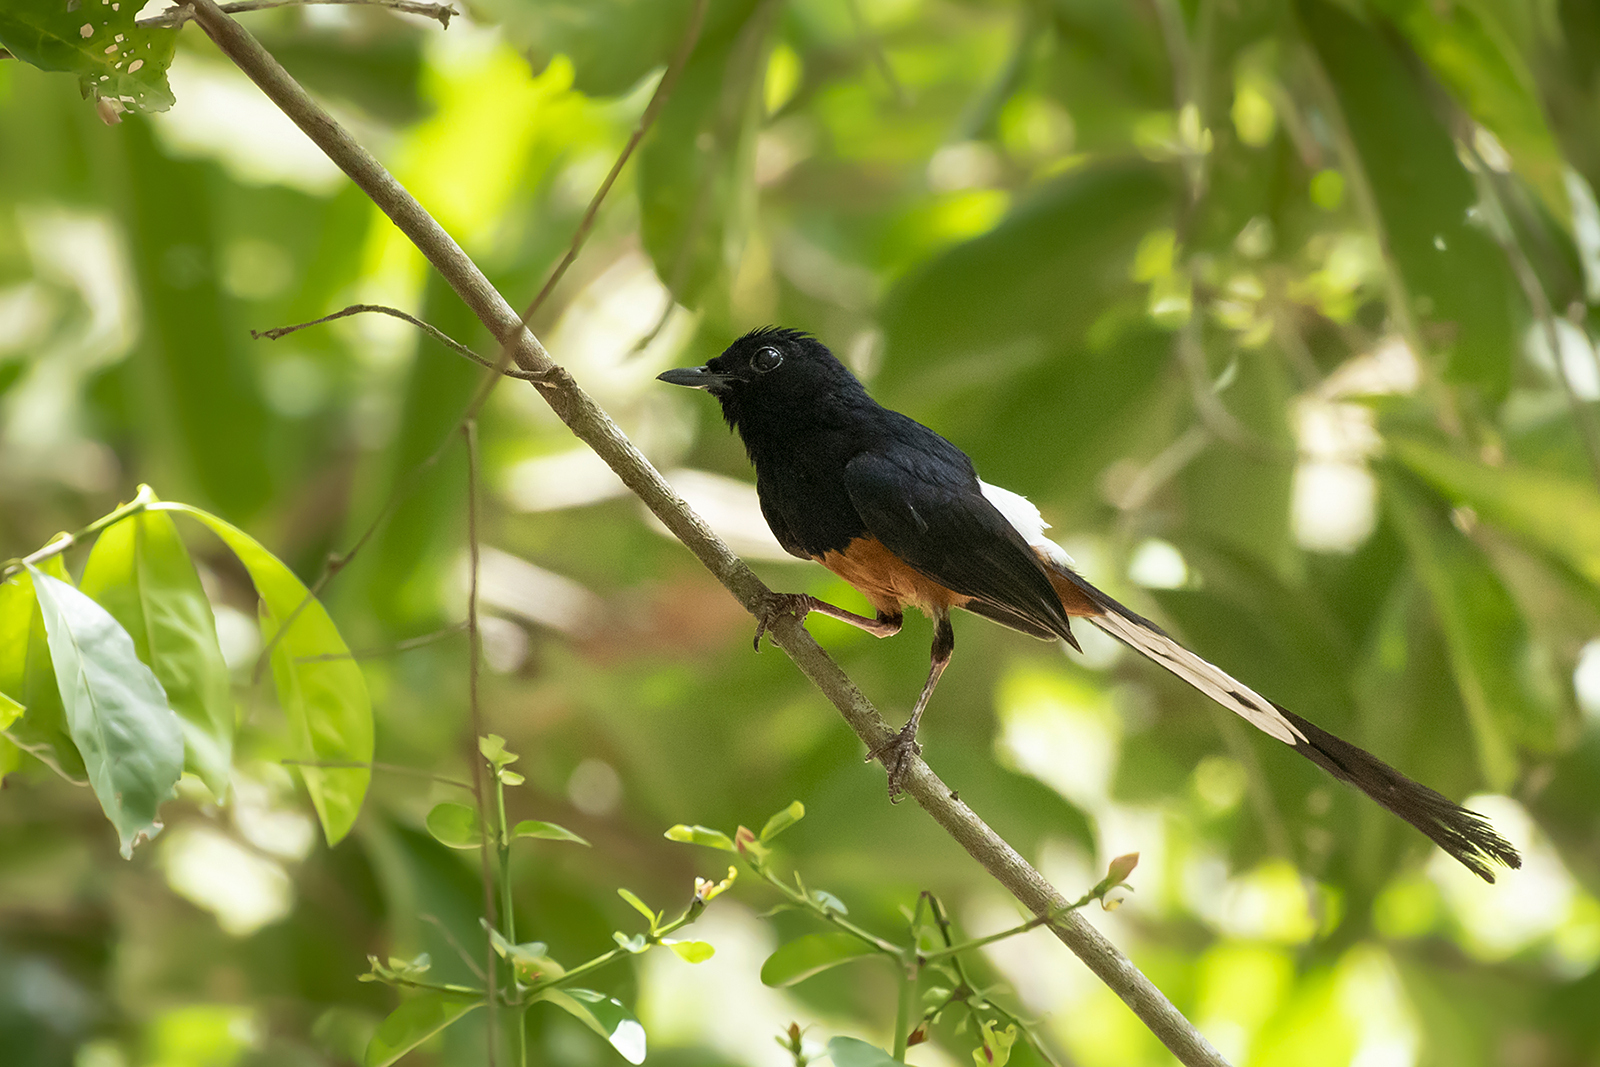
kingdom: Animalia
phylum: Chordata
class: Aves
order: Passeriformes
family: Muscicapidae
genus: Copsychus
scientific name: Copsychus malabaricus
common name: White-rumped shama
